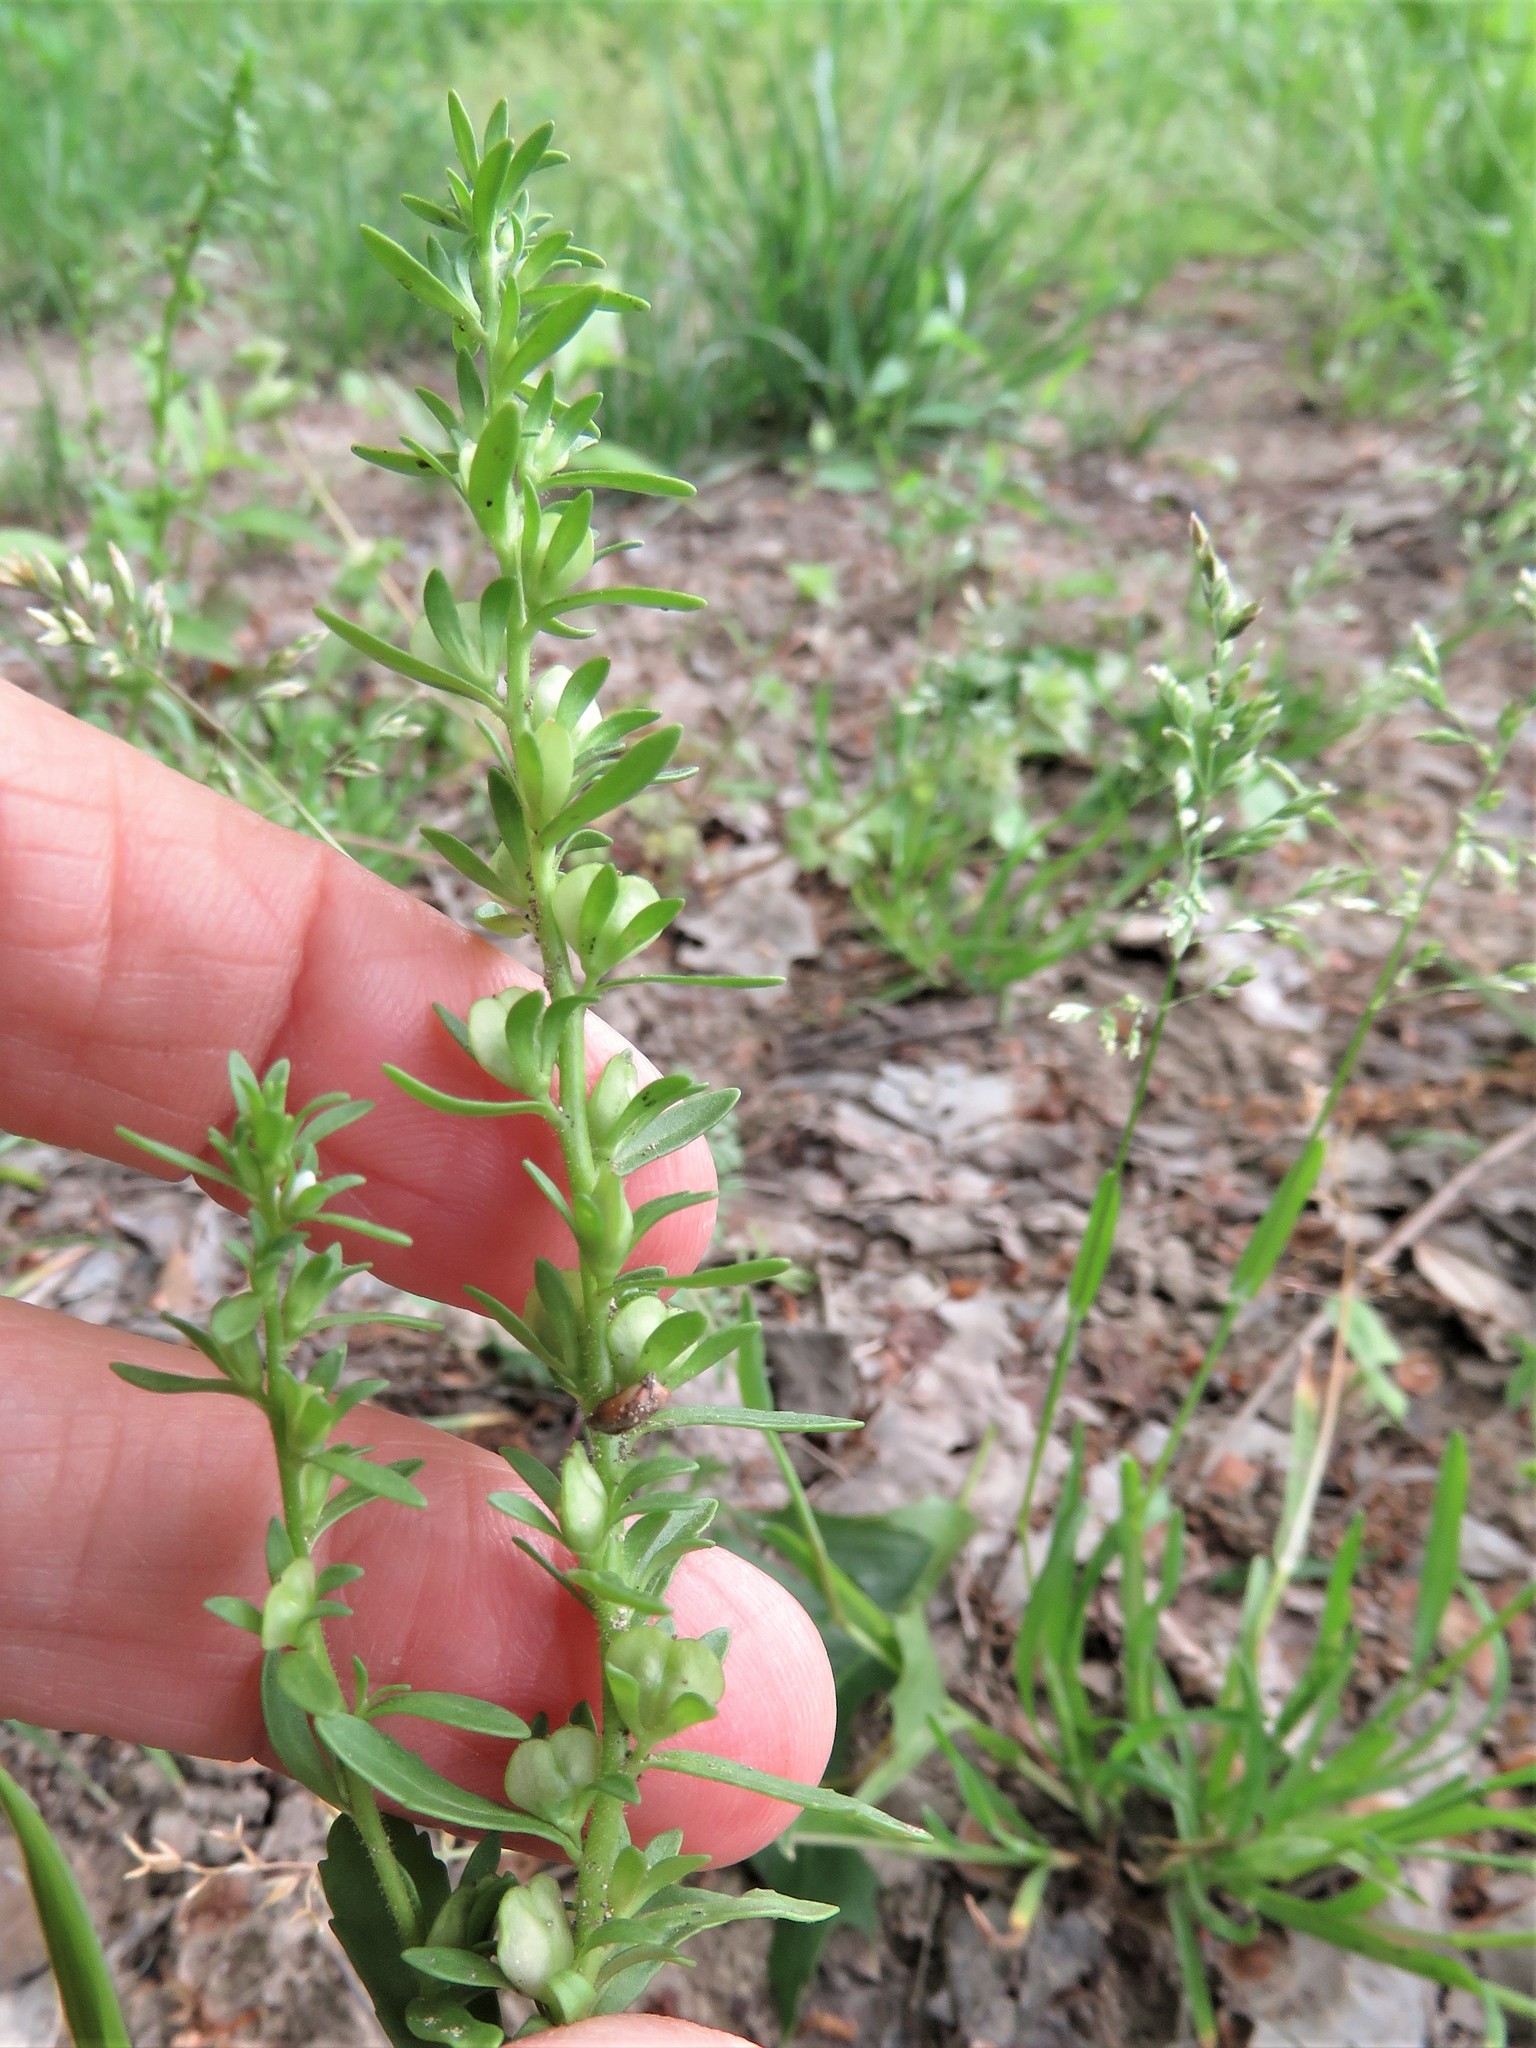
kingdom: Plantae
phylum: Tracheophyta
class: Magnoliopsida
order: Lamiales
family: Plantaginaceae
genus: Veronica
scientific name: Veronica peregrina
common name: Neckweed
